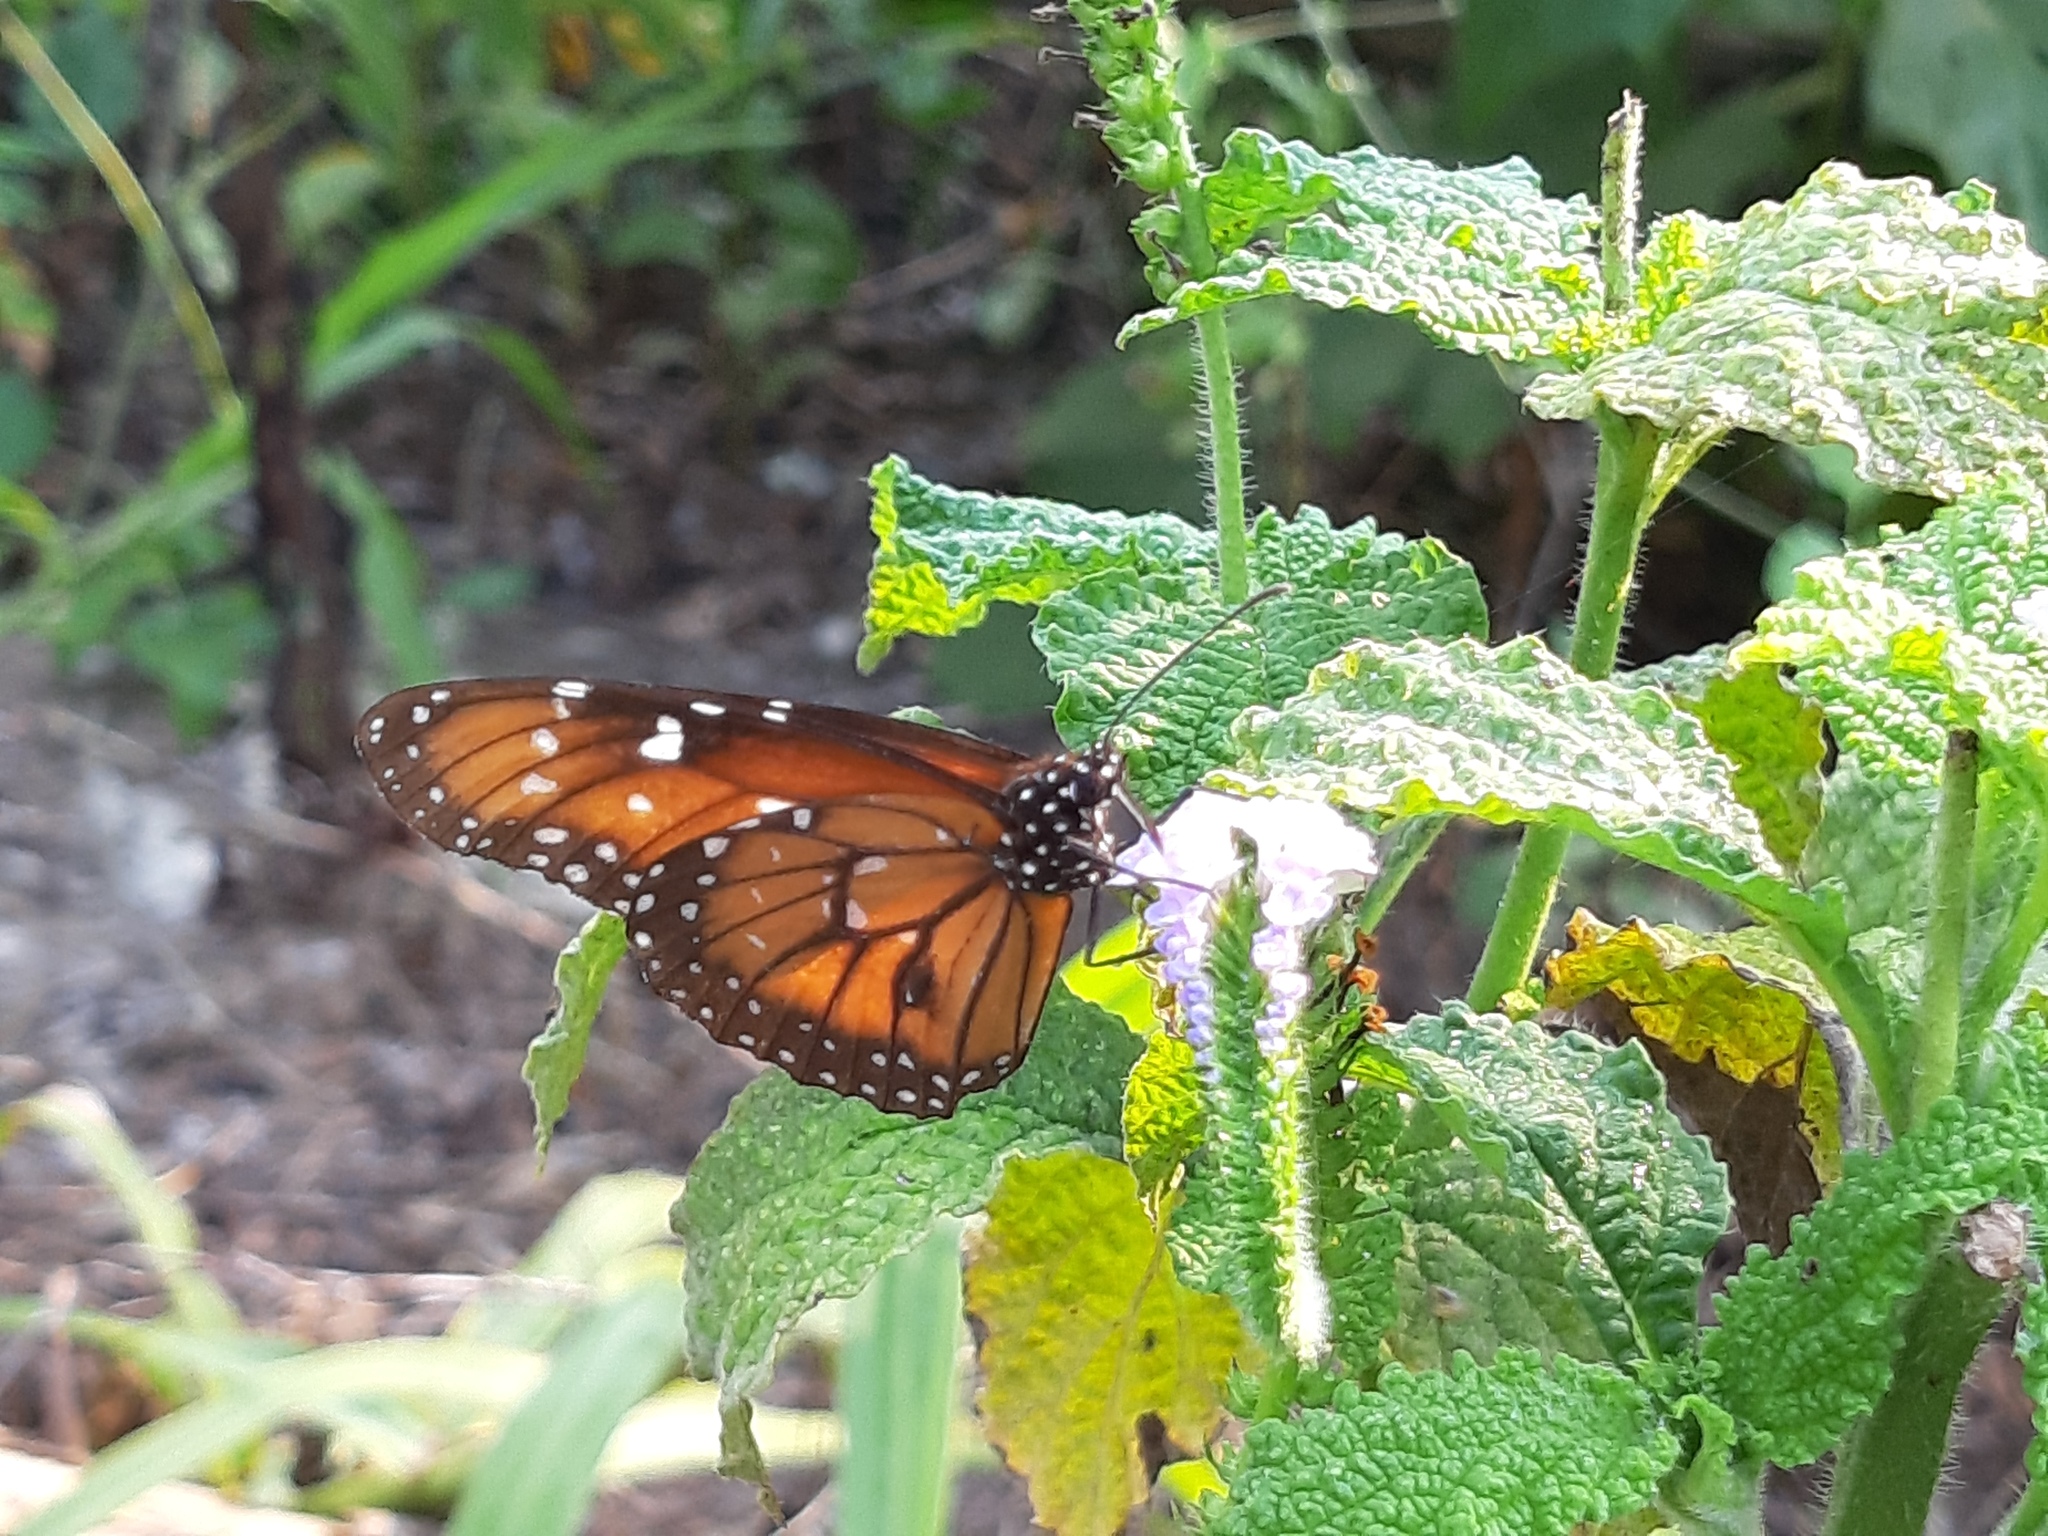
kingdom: Animalia
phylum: Arthropoda
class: Insecta
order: Lepidoptera
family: Nymphalidae
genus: Danaus
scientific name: Danaus eresimus
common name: Soldier
